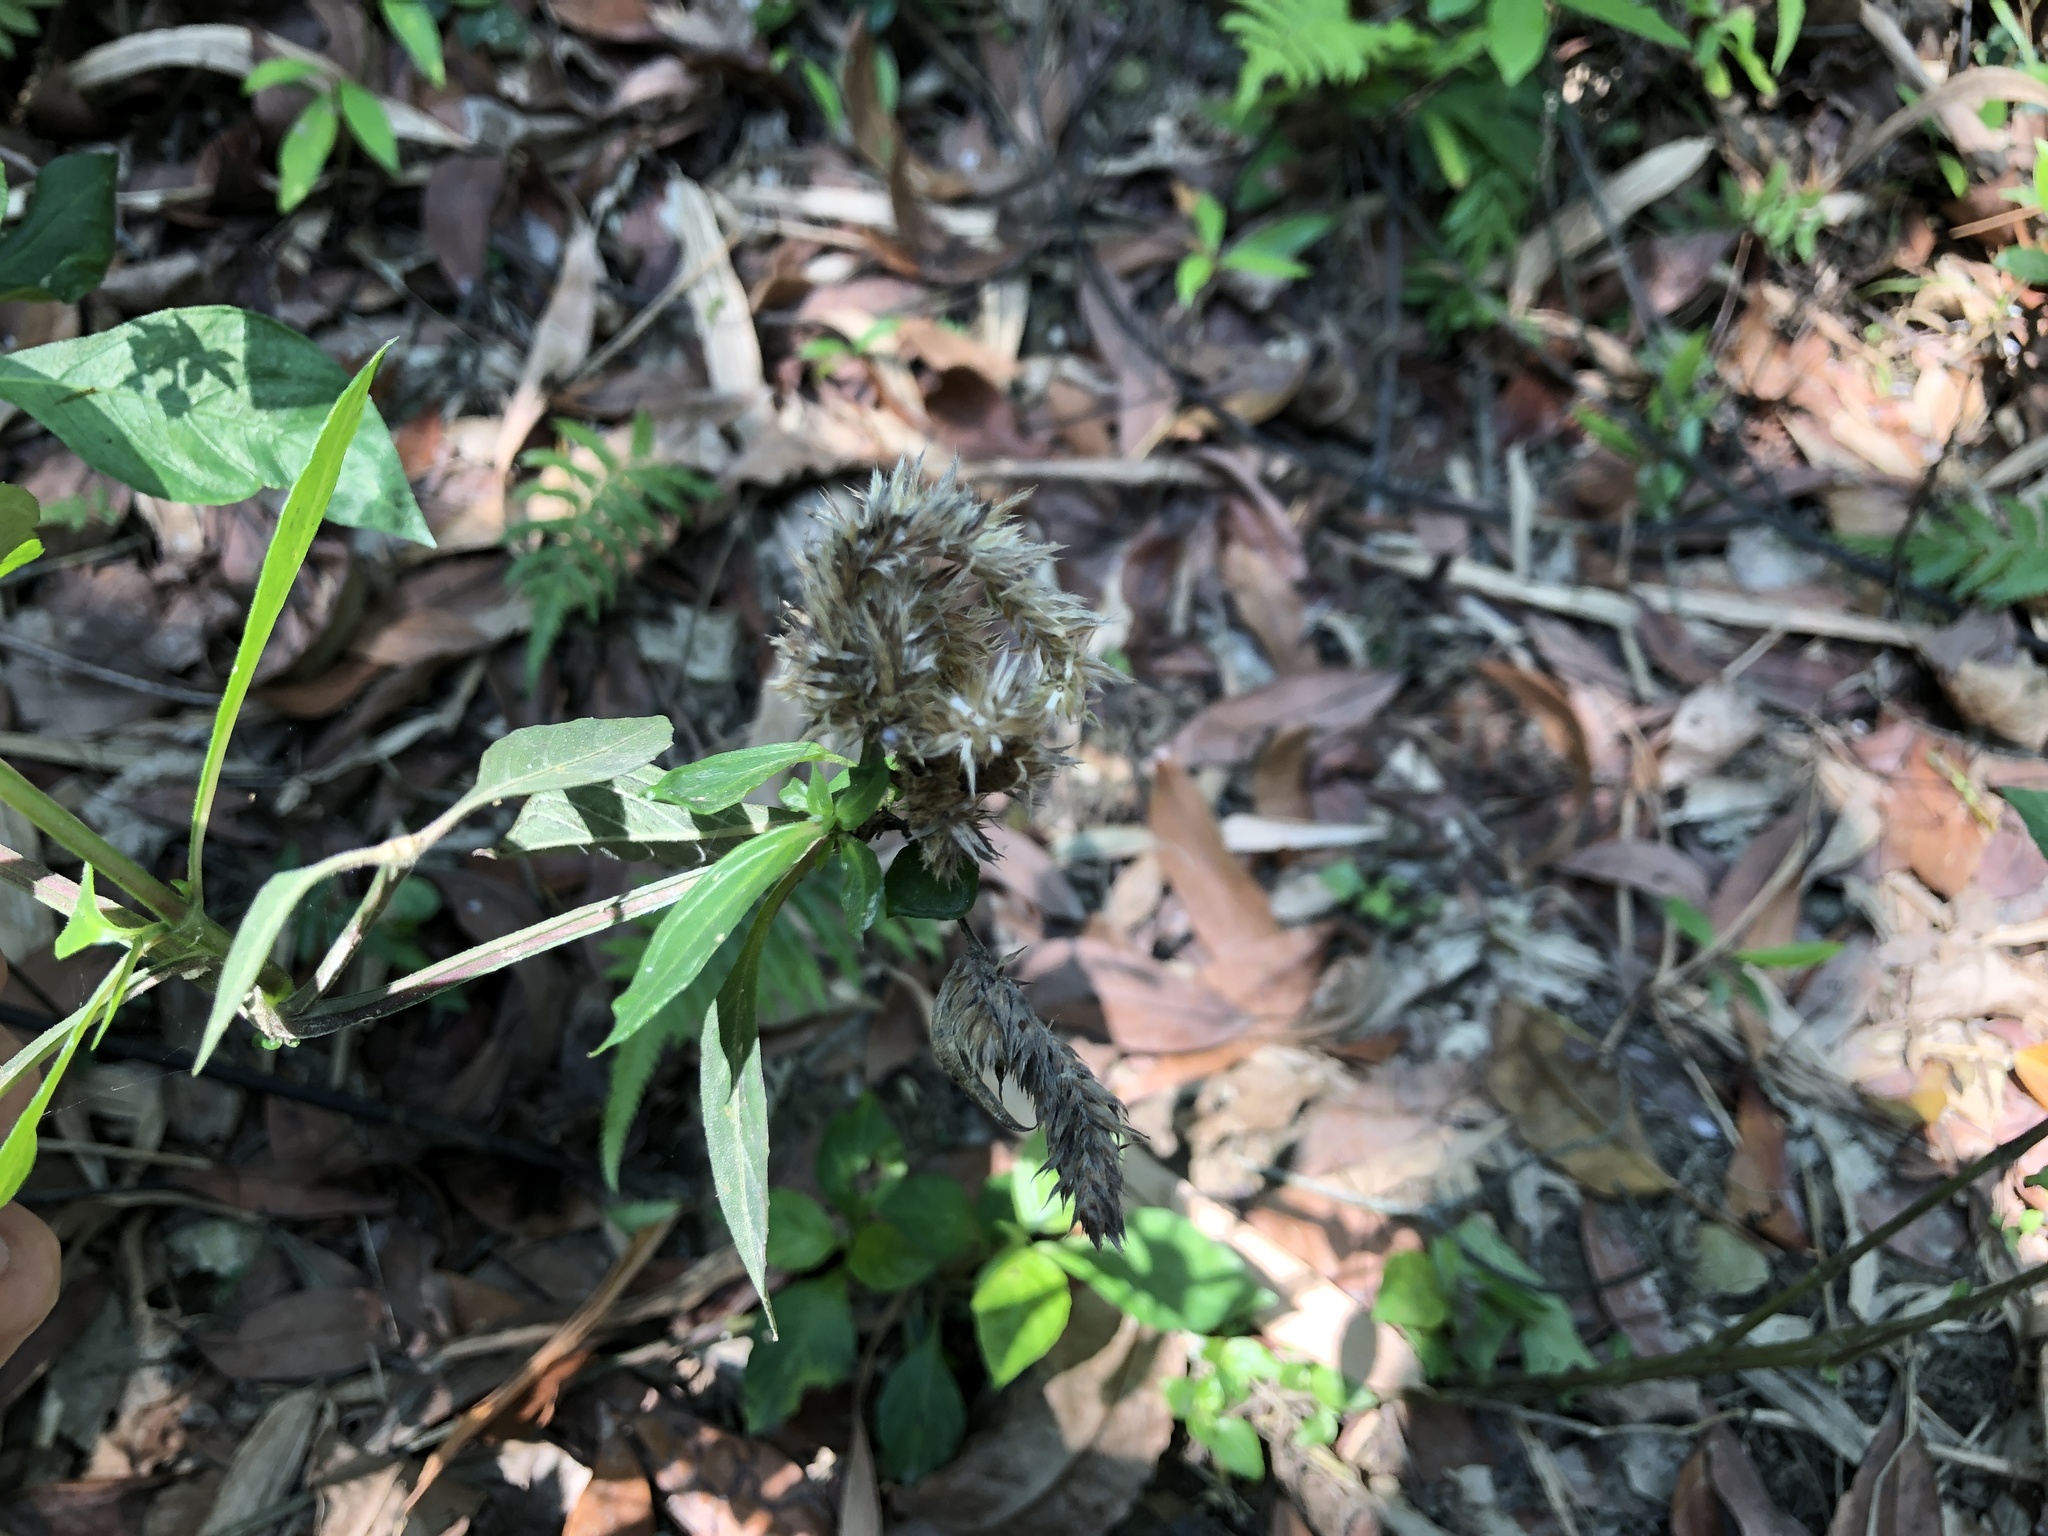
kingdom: Plantae
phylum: Tracheophyta
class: Magnoliopsida
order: Lamiales
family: Acanthaceae
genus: Lepidagathis
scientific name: Lepidagathis formosensis
